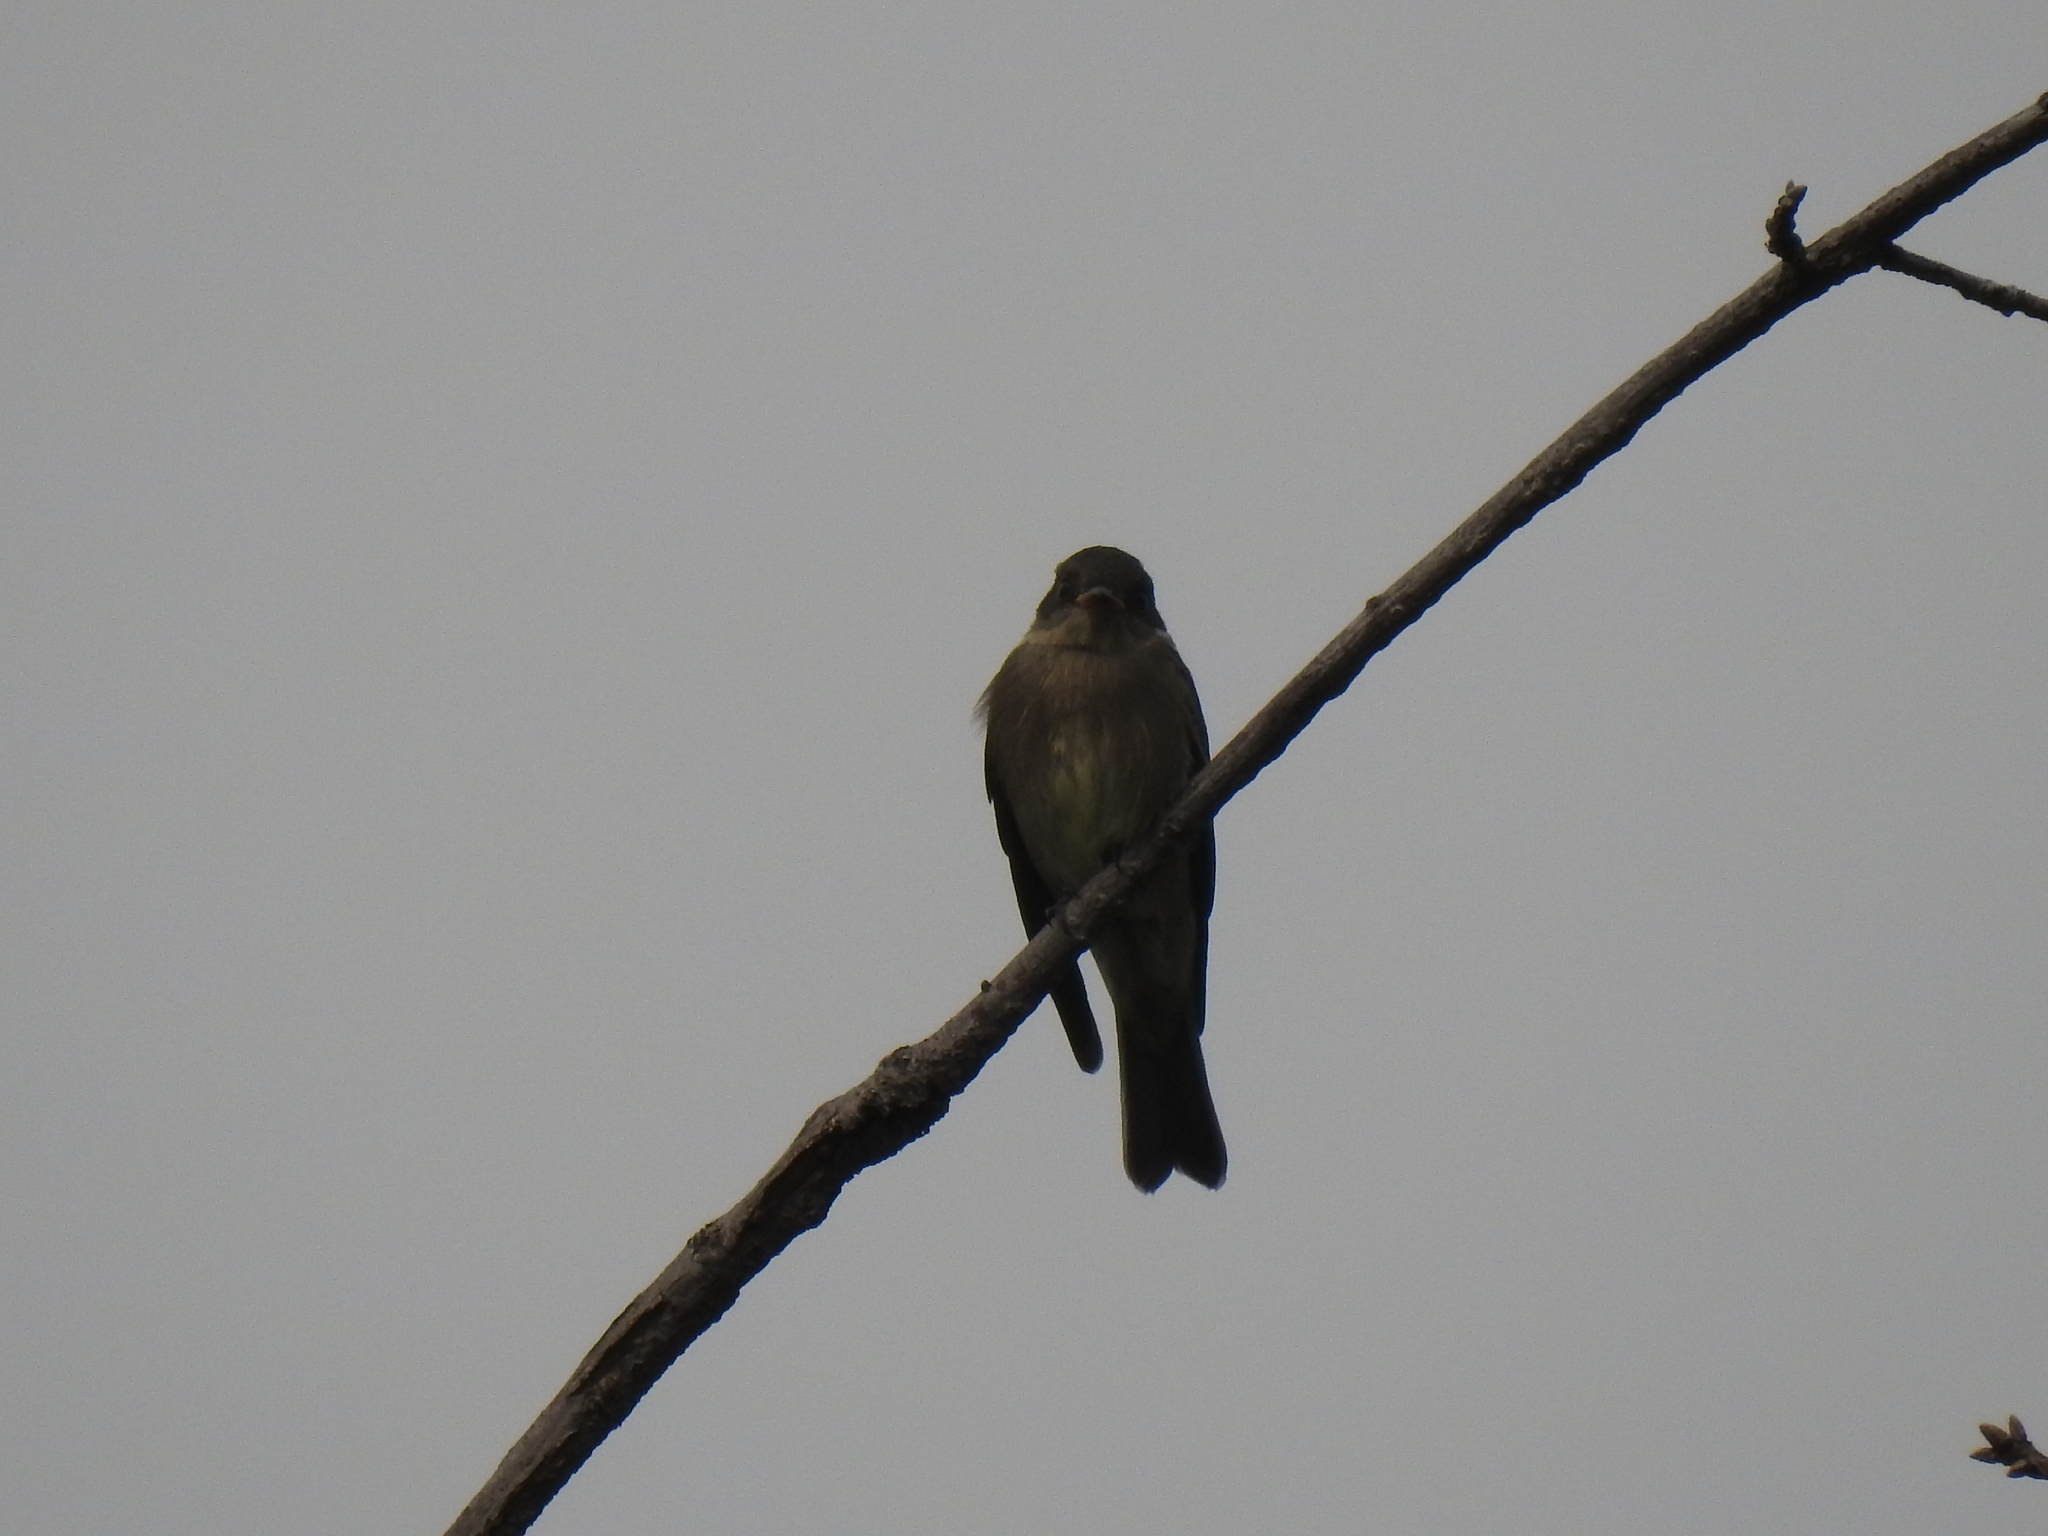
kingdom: Animalia
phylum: Chordata
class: Aves
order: Passeriformes
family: Tyrannidae
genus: Contopus
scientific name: Contopus sordidulus
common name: Western wood-pewee
